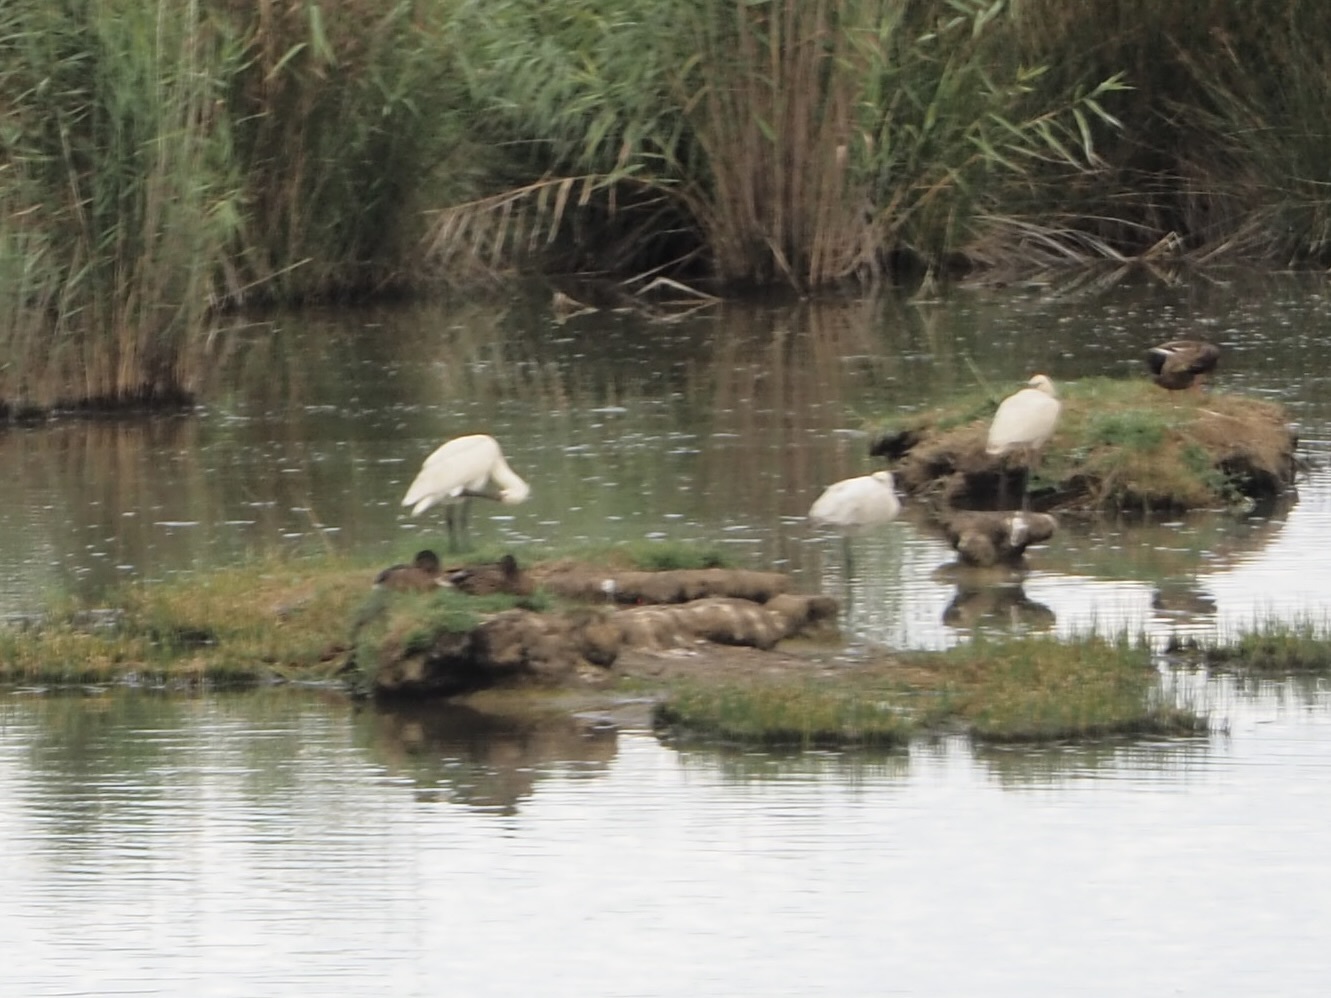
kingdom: Animalia
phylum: Chordata
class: Aves
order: Pelecaniformes
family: Threskiornithidae
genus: Platalea
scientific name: Platalea leucorodia
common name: Eurasian spoonbill
